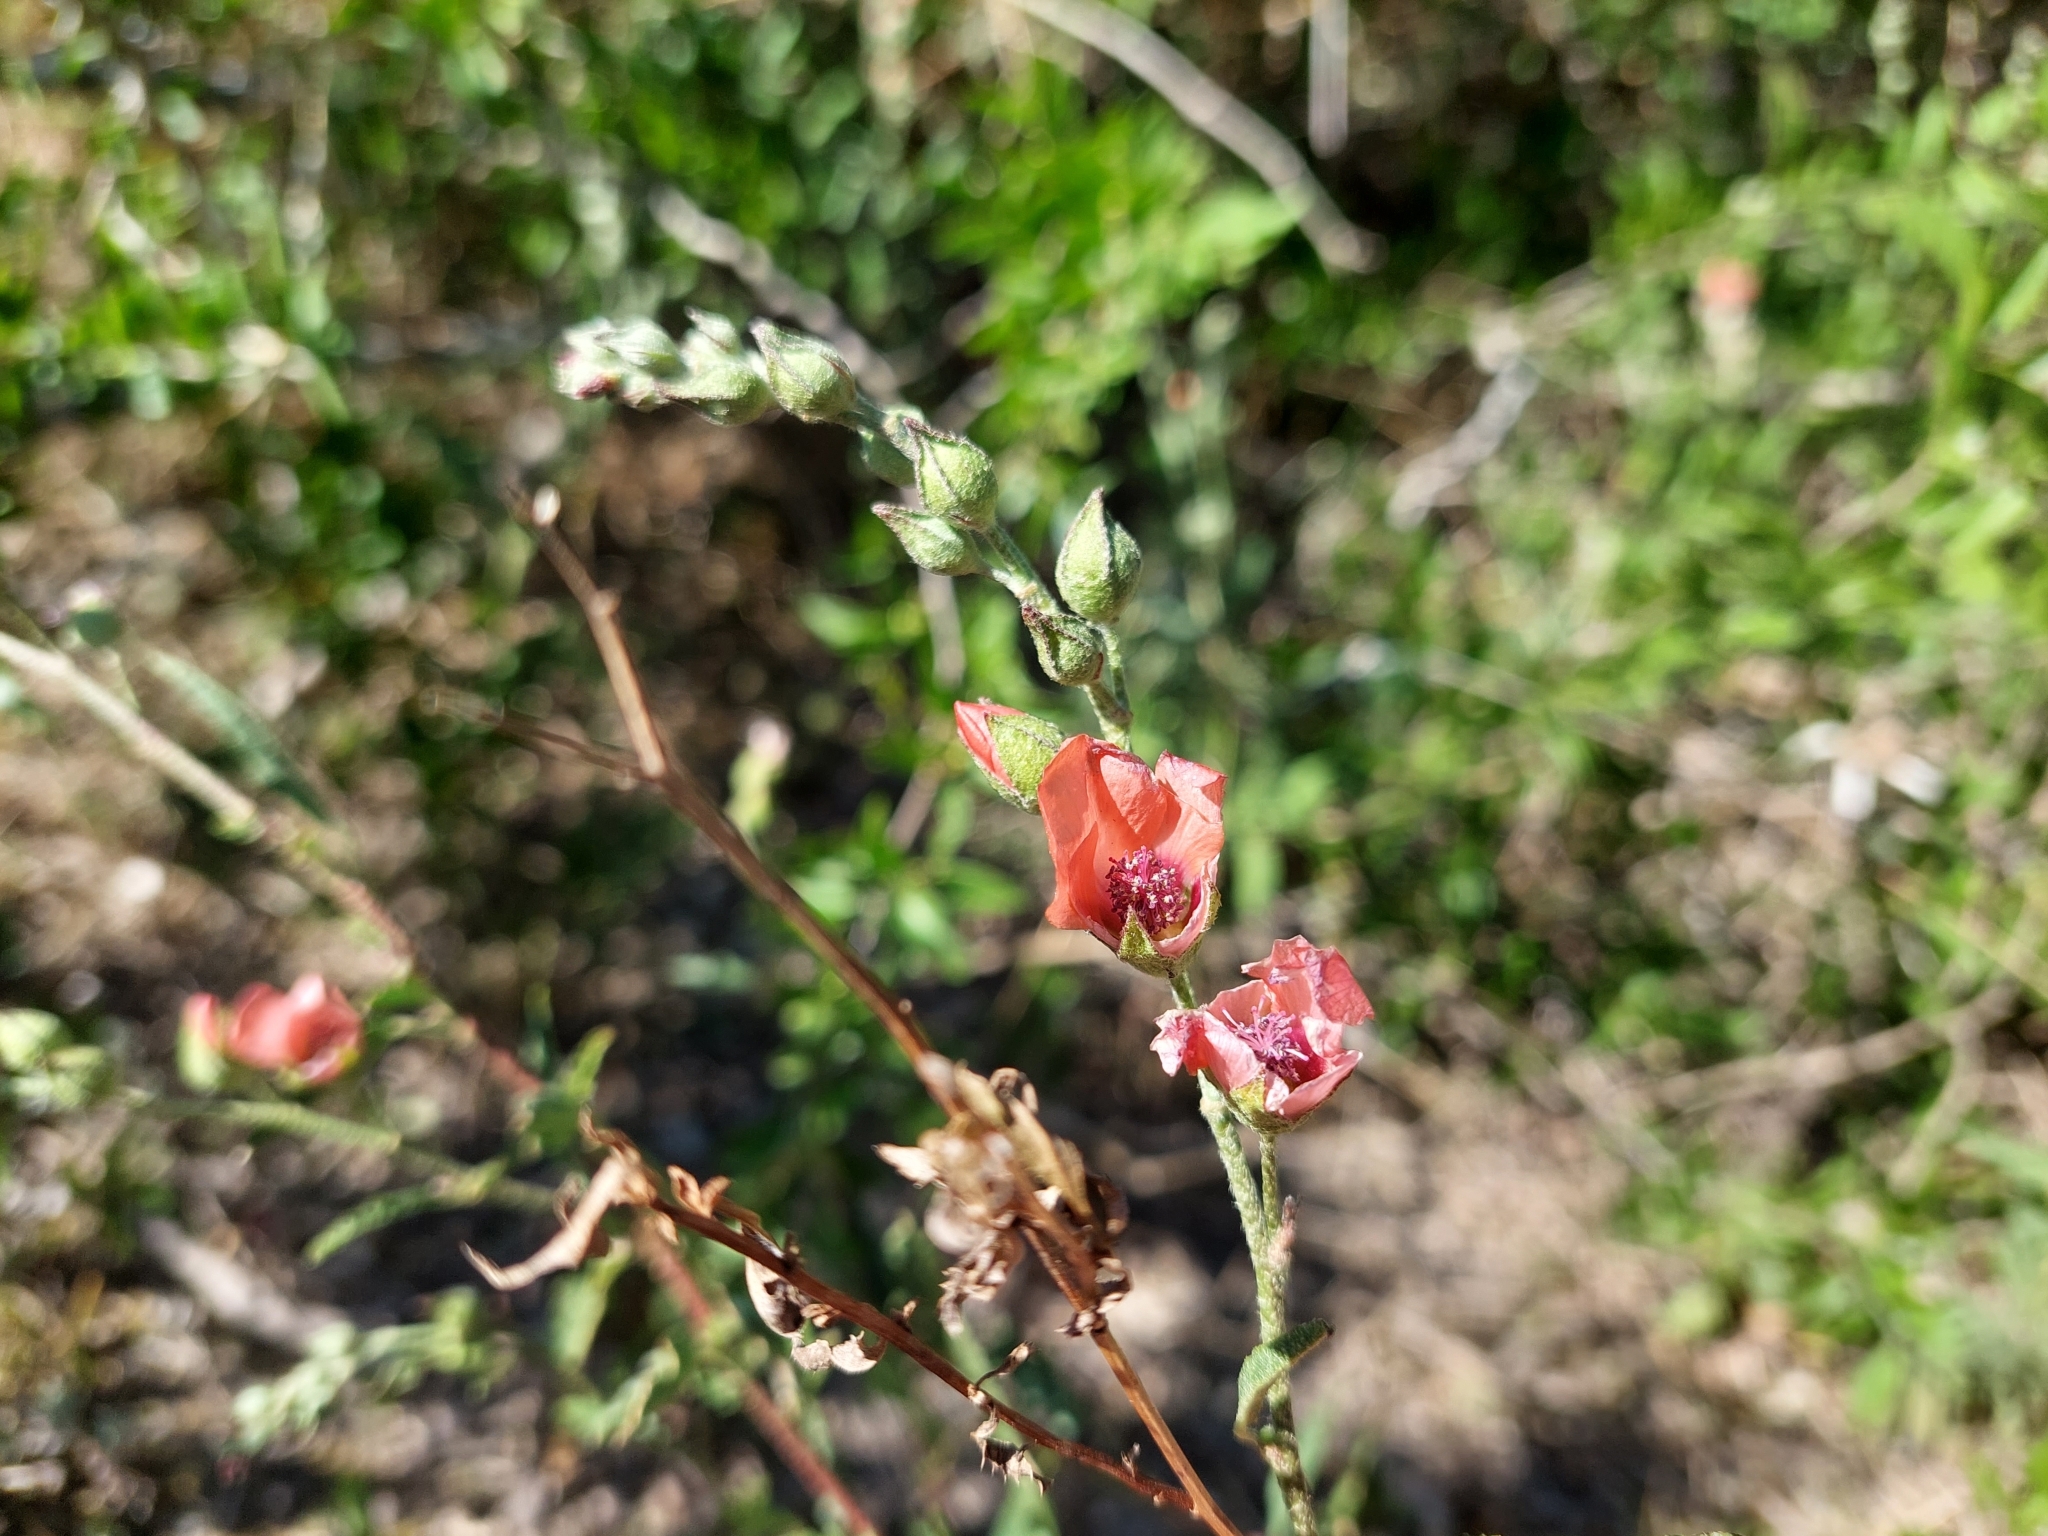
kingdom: Plantae
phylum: Tracheophyta
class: Magnoliopsida
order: Malvales
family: Malvaceae
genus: Sphaeralcea
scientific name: Sphaeralcea chenopodifolia
